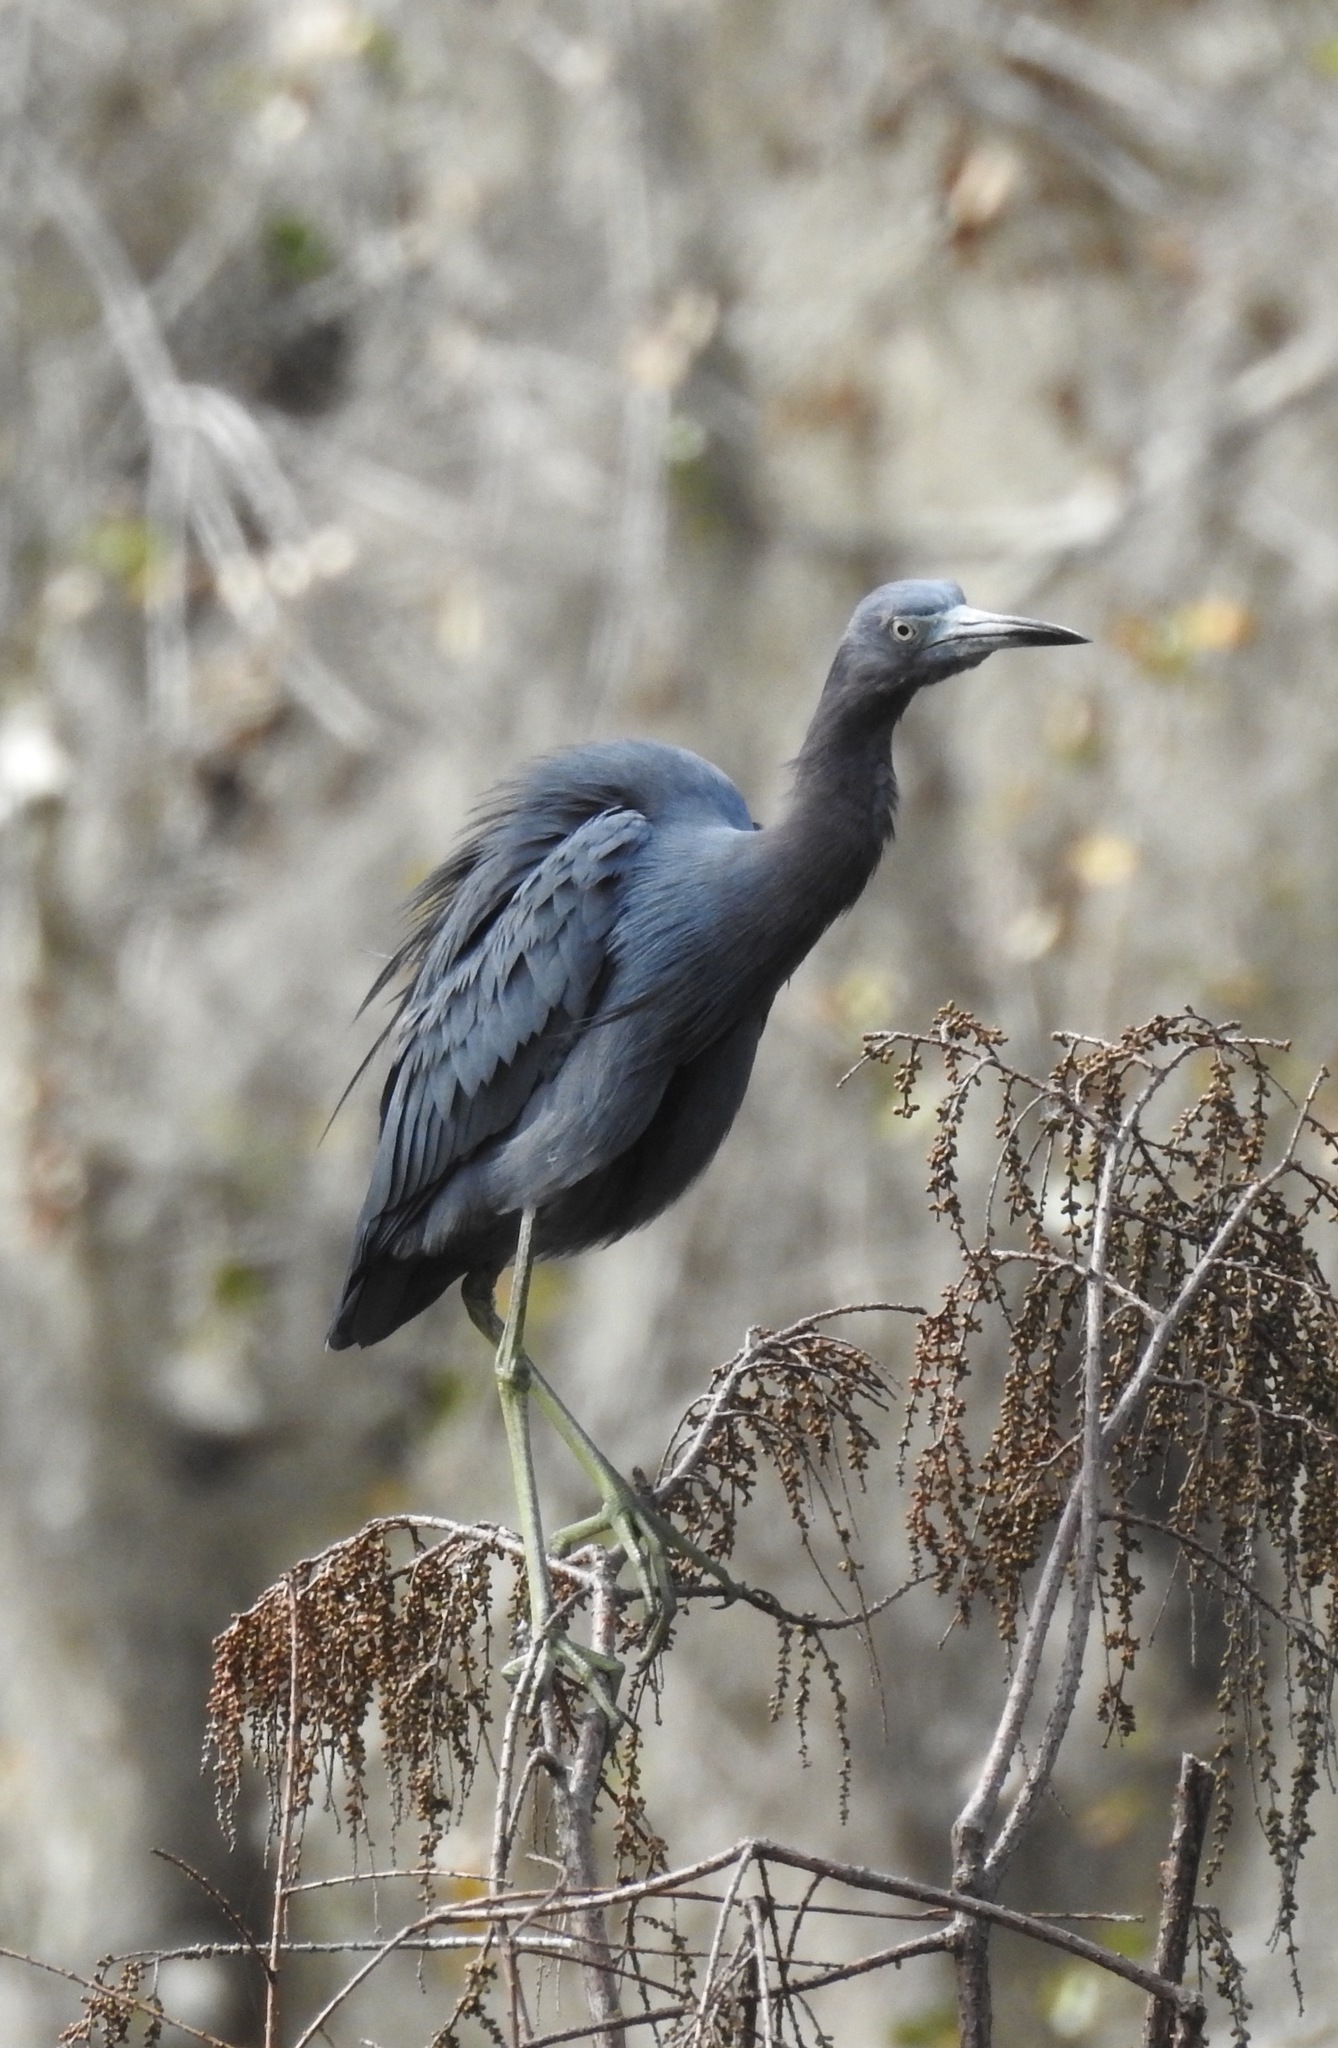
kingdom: Animalia
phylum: Chordata
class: Aves
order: Pelecaniformes
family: Ardeidae
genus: Egretta
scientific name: Egretta caerulea
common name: Little blue heron
